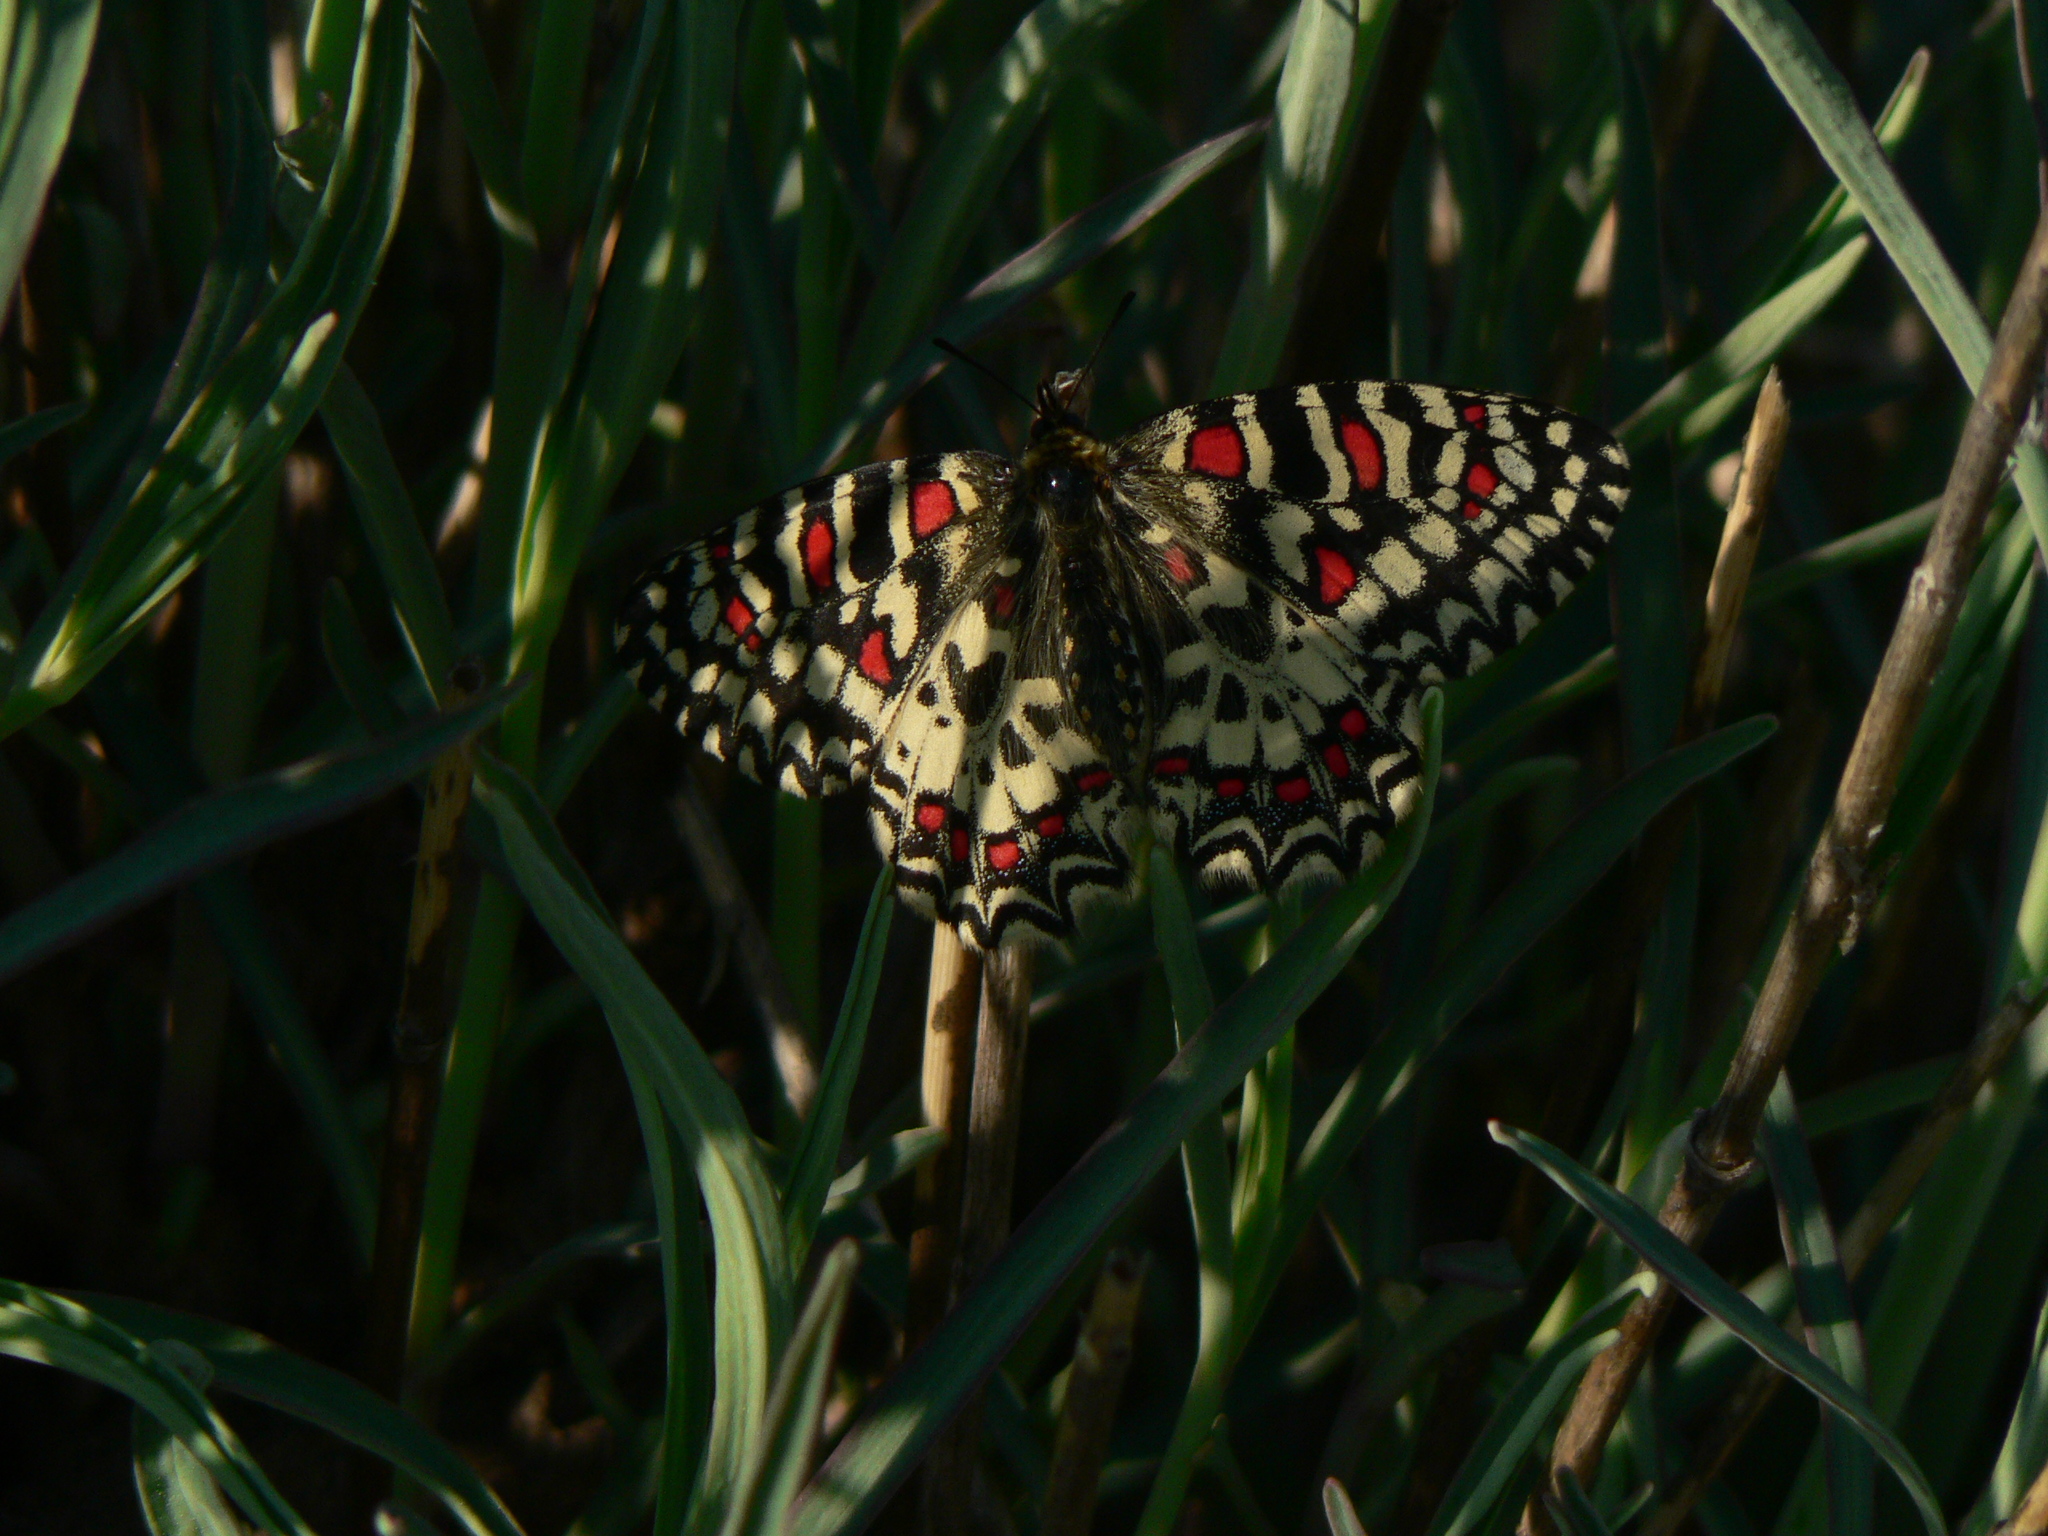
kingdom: Animalia
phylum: Arthropoda
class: Insecta
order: Lepidoptera
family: Papilionidae
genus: Zerynthia
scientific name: Zerynthia rumina
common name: Spanish festoon
